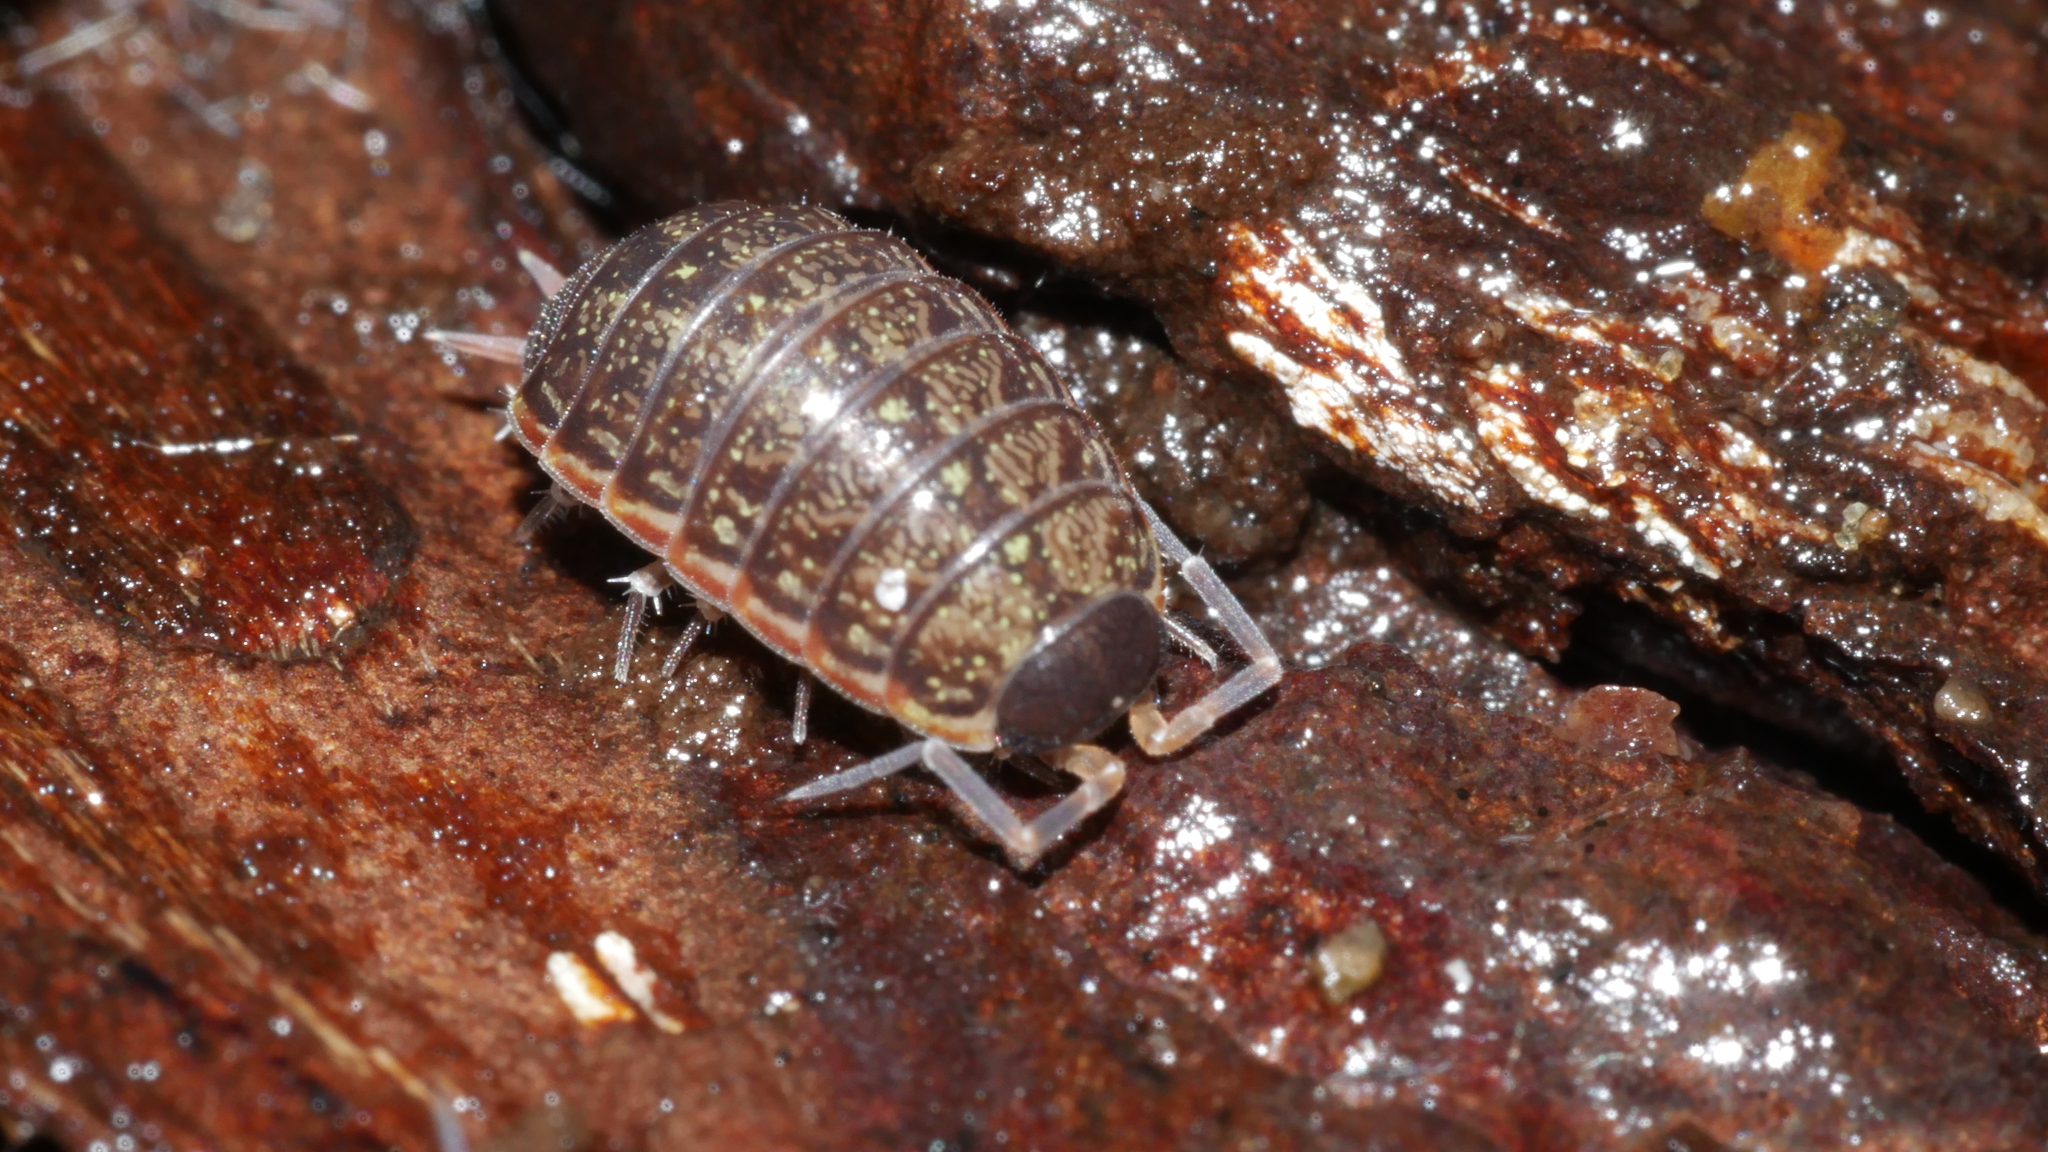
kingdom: Animalia
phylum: Arthropoda
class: Malacostraca
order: Isopoda
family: Philosciidae
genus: Philoscia
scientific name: Philoscia muscorum
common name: Common striped woodlouse
